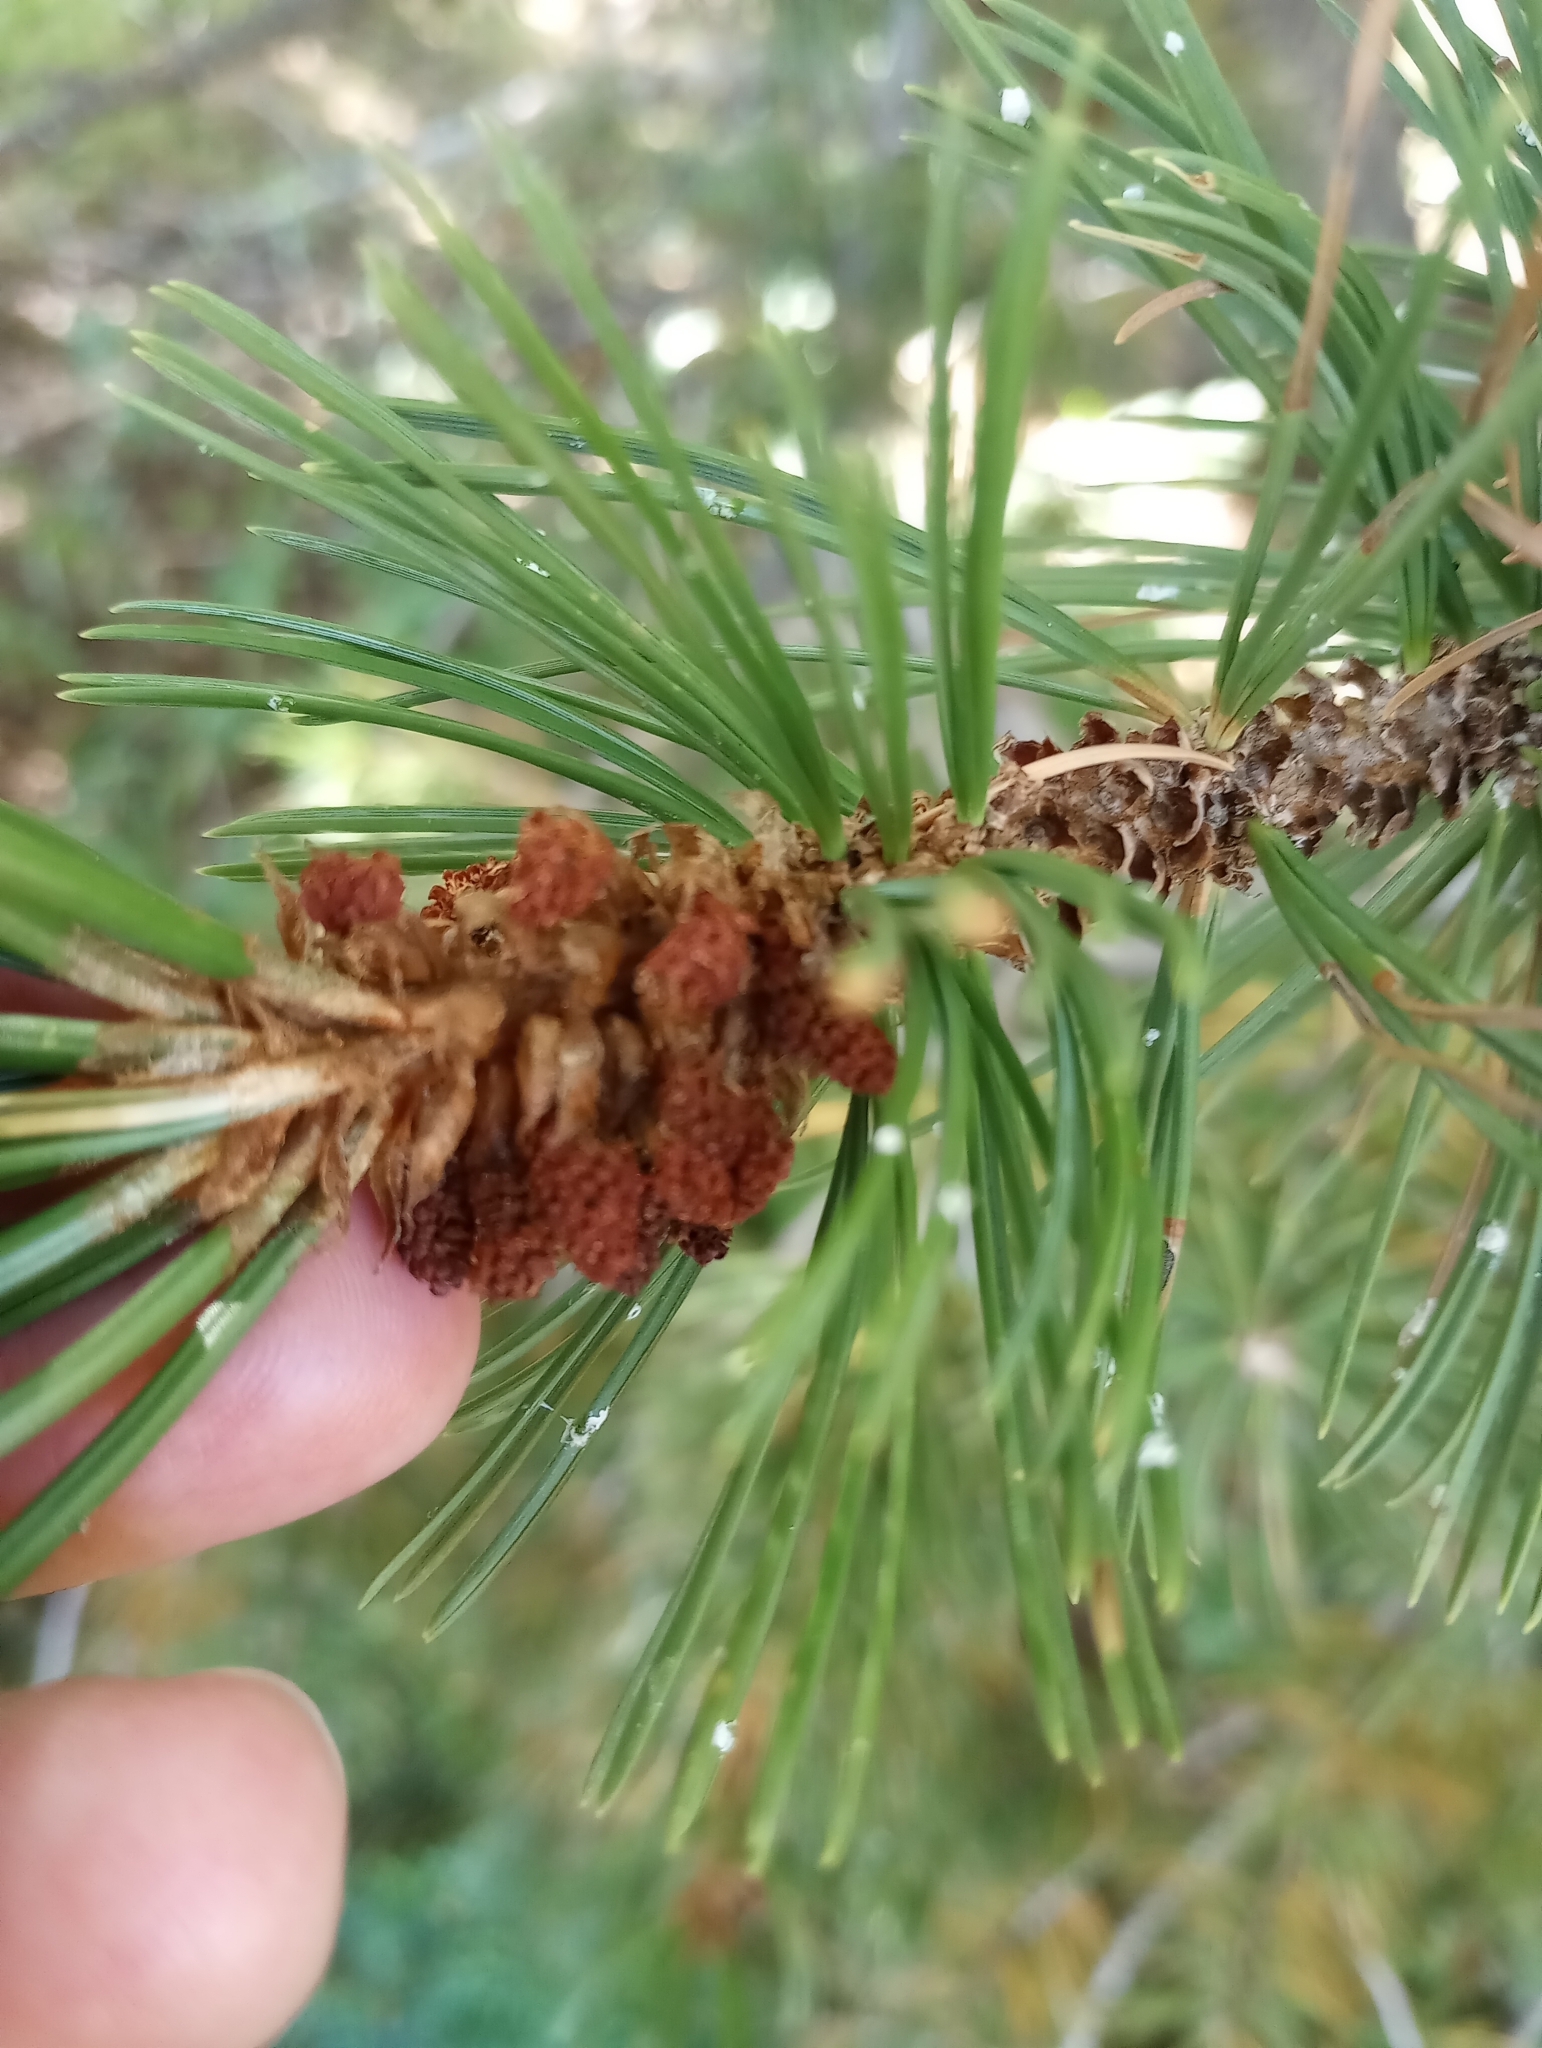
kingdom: Plantae
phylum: Tracheophyta
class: Pinopsida
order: Pinales
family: Pinaceae
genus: Pinus
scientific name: Pinus aristata
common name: Colorado bristlecone pine
